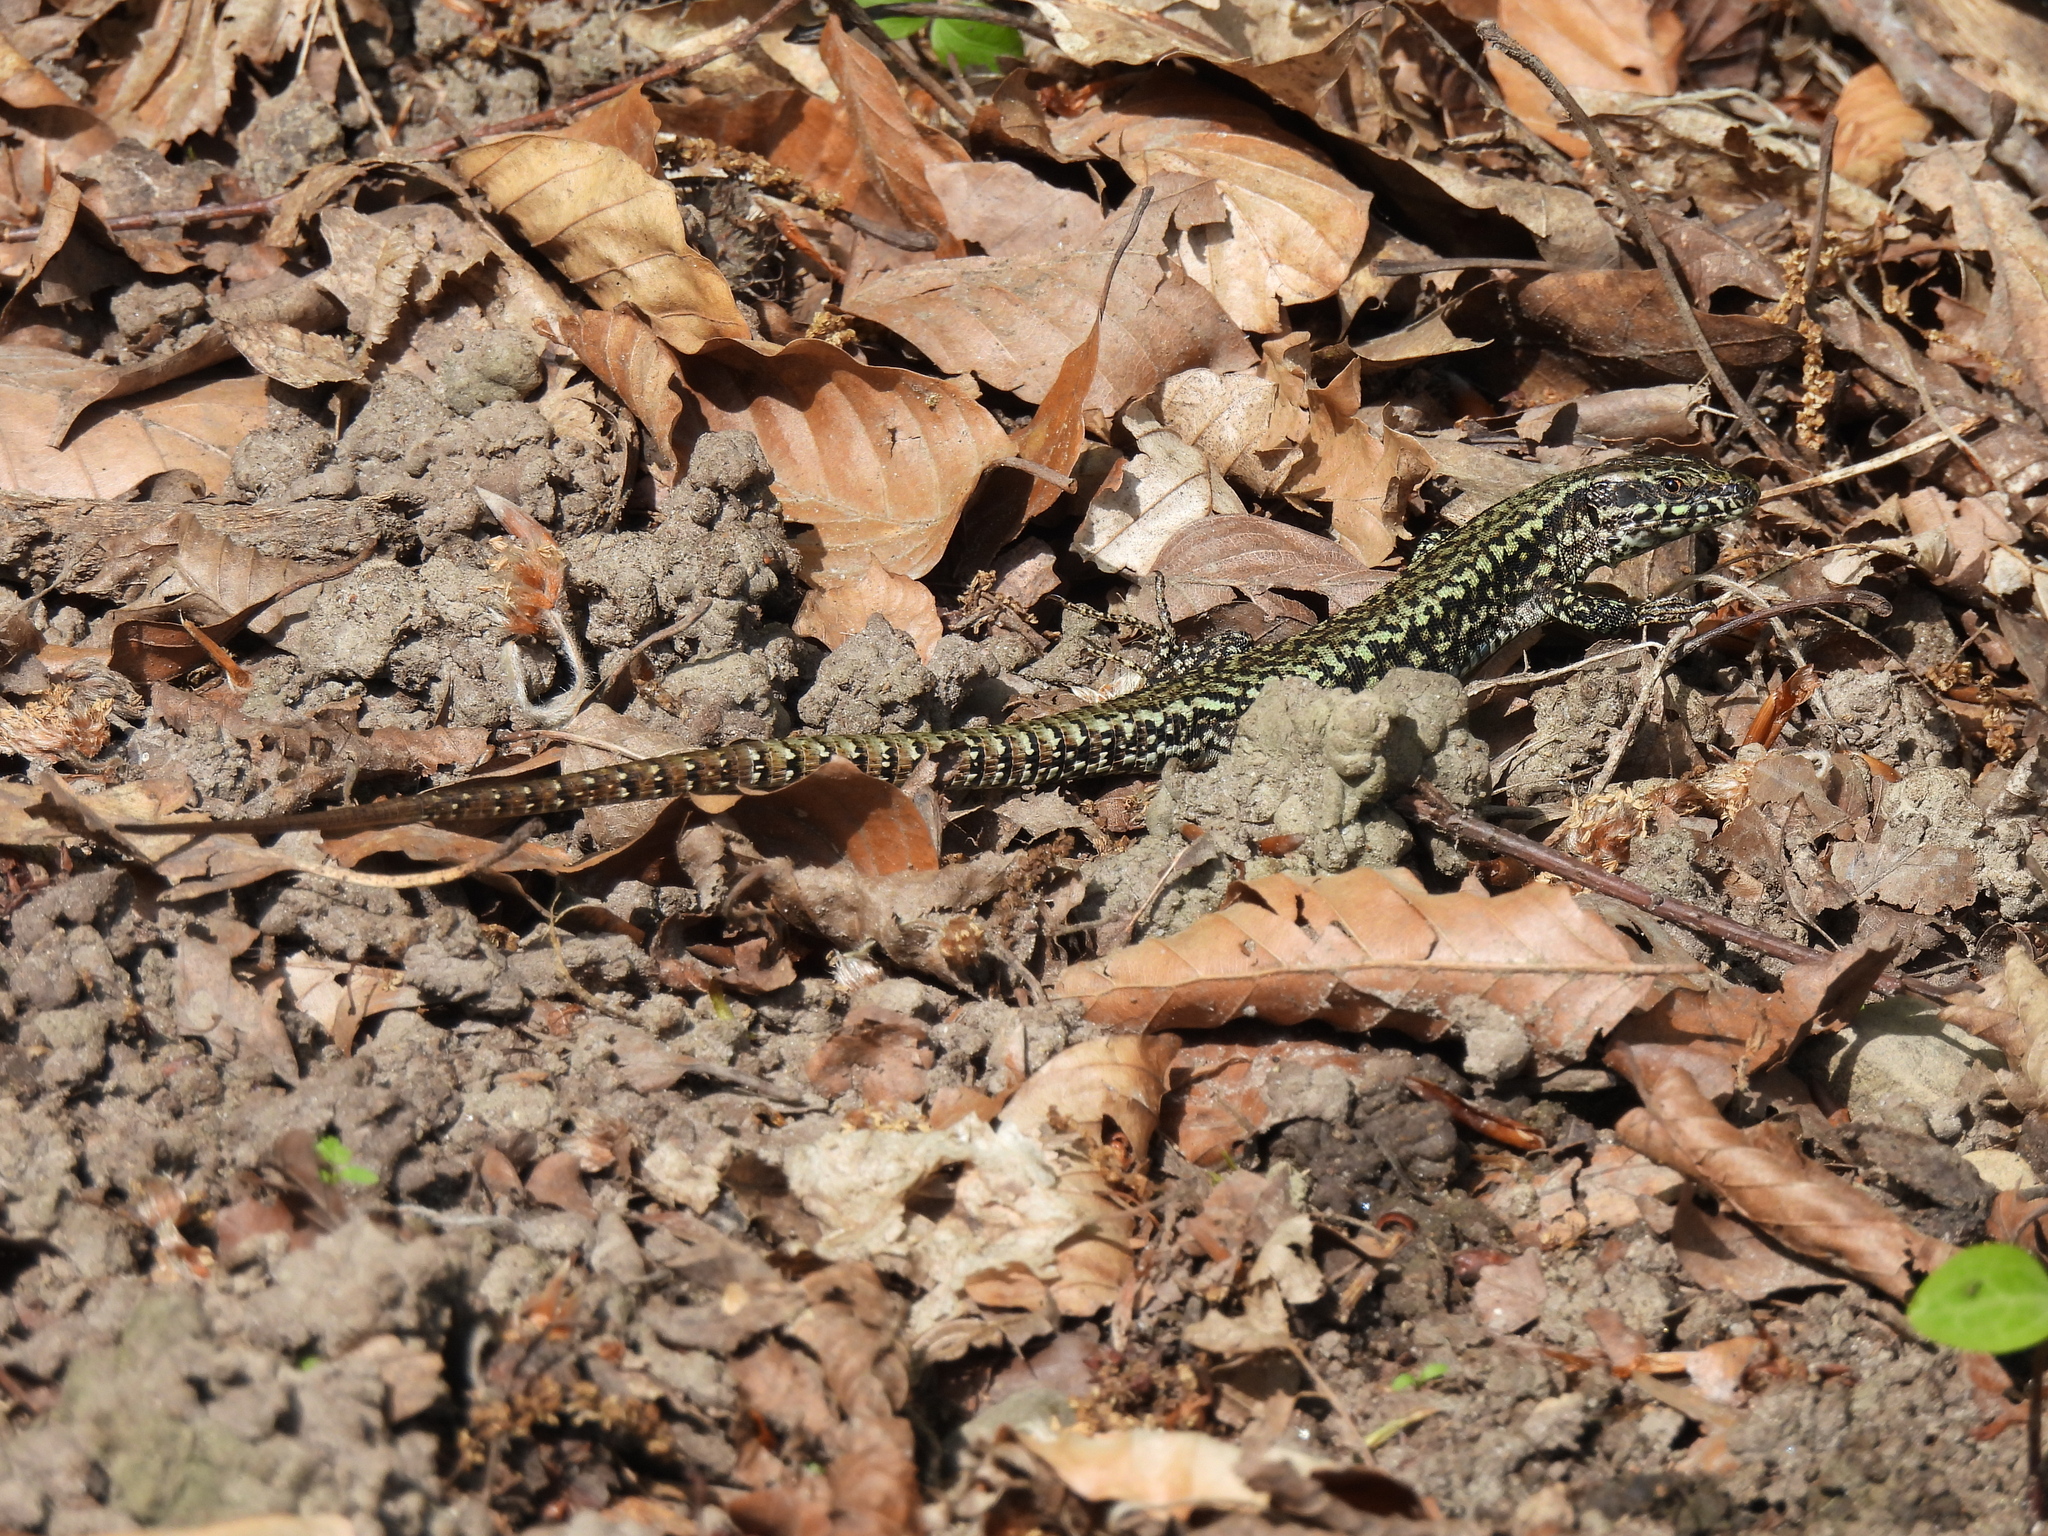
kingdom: Animalia
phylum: Chordata
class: Squamata
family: Lacertidae
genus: Podarcis
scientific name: Podarcis muralis
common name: Common wall lizard
